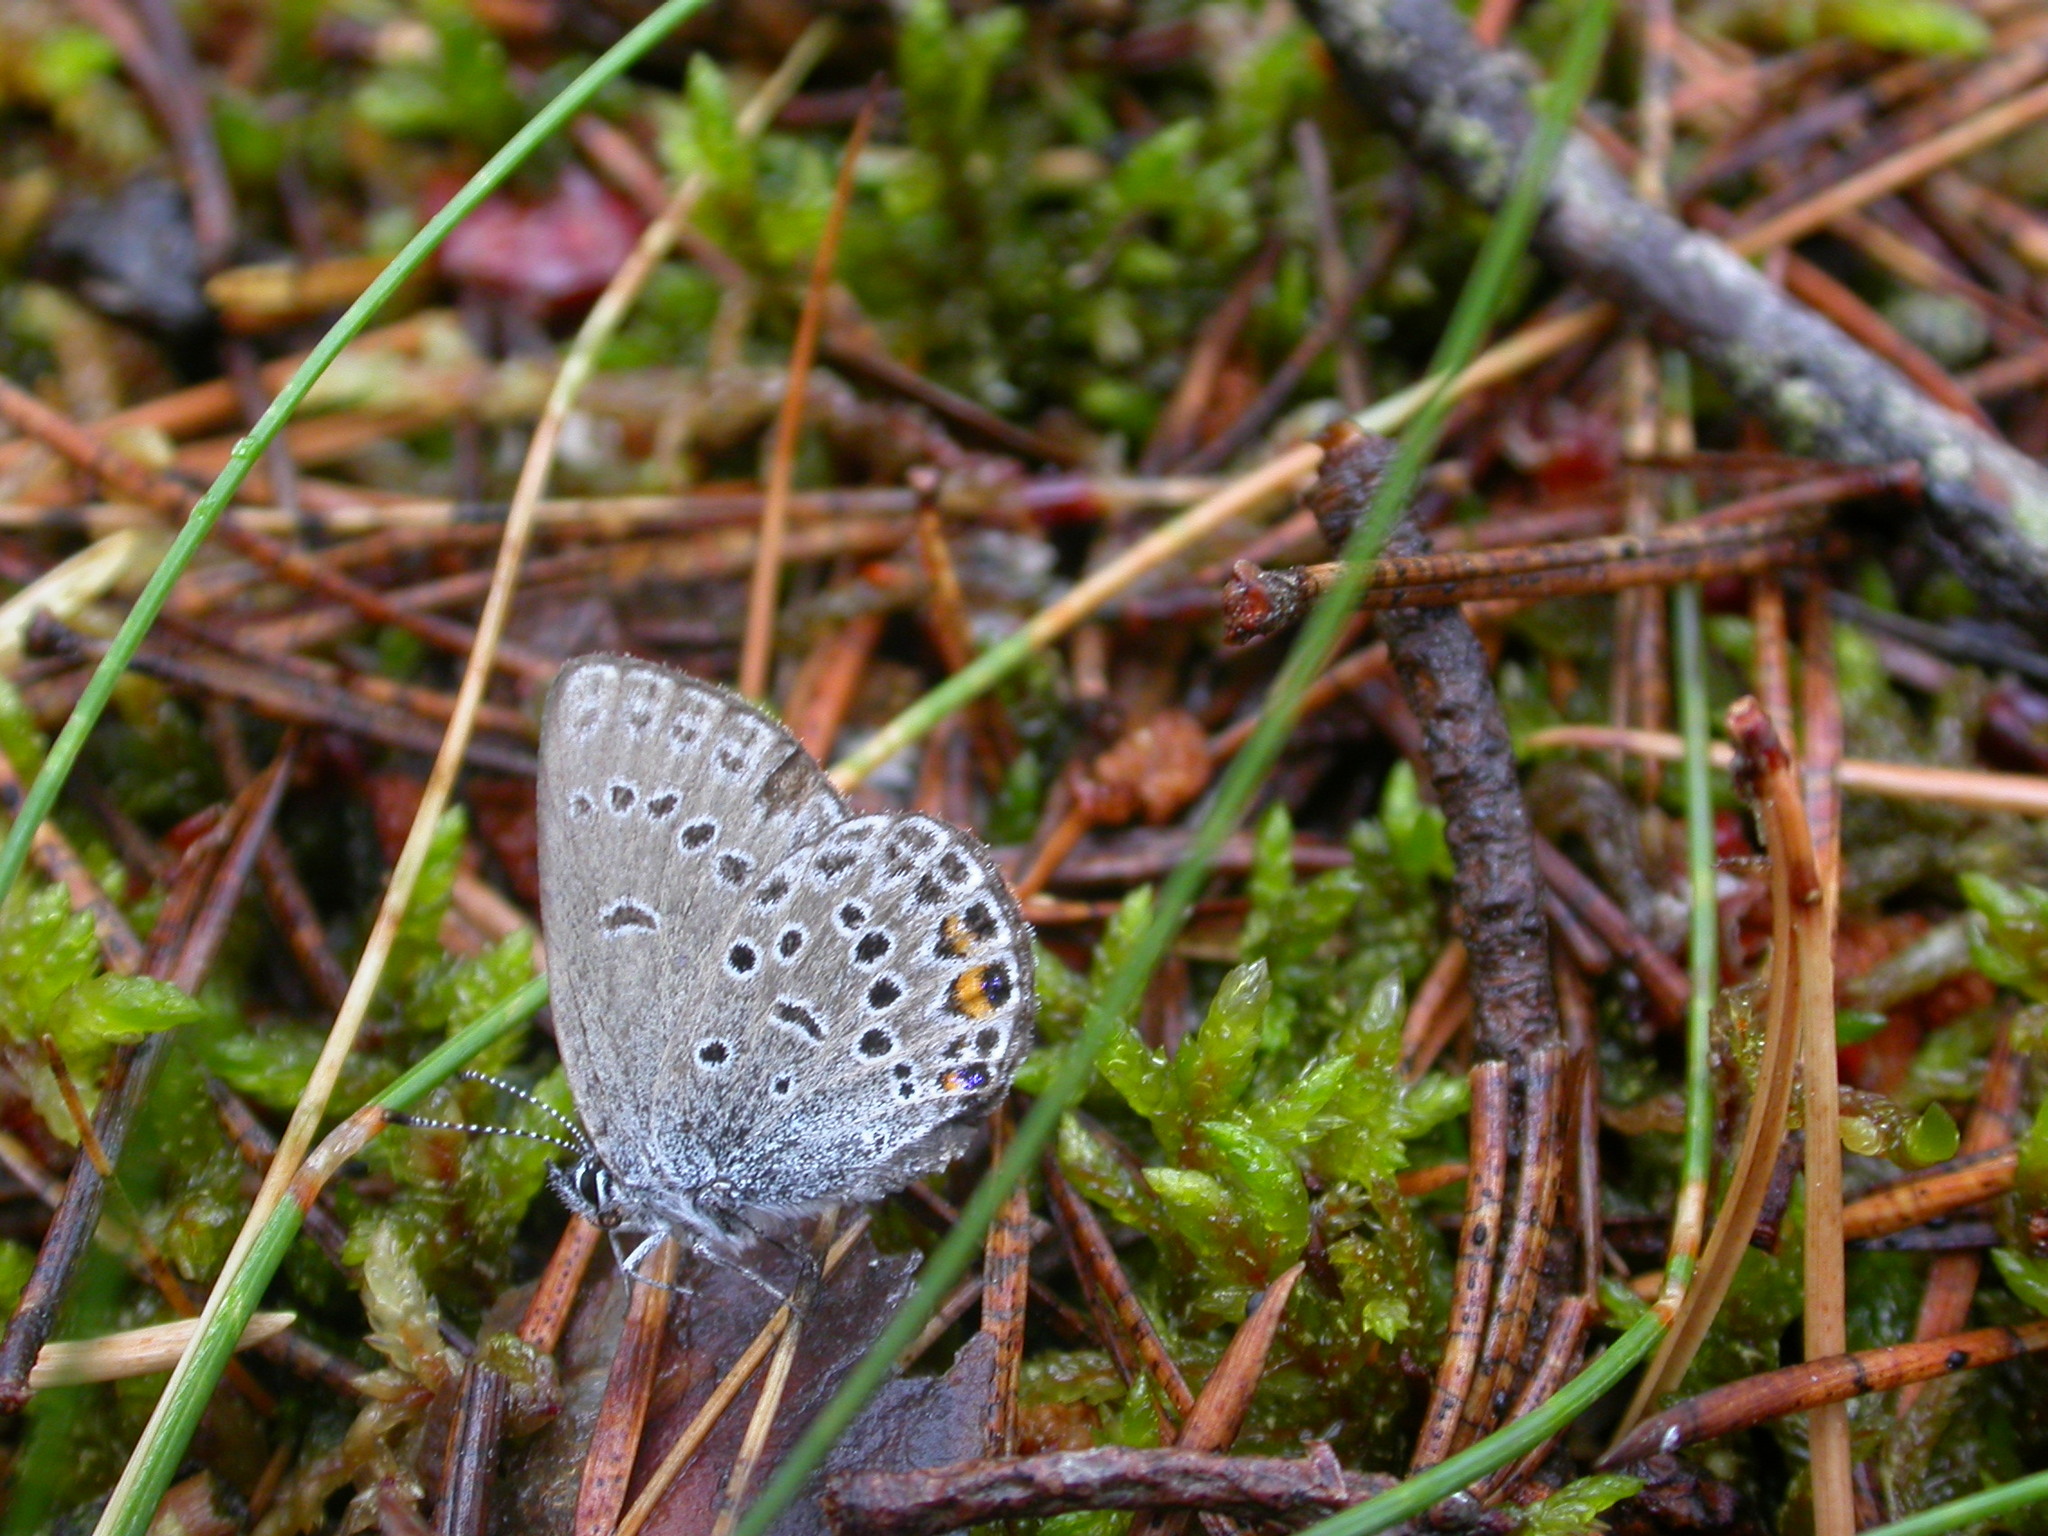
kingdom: Animalia
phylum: Arthropoda
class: Insecta
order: Lepidoptera
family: Lycaenidae
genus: Vacciniina
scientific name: Vacciniina optilete
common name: Cranberry blue
